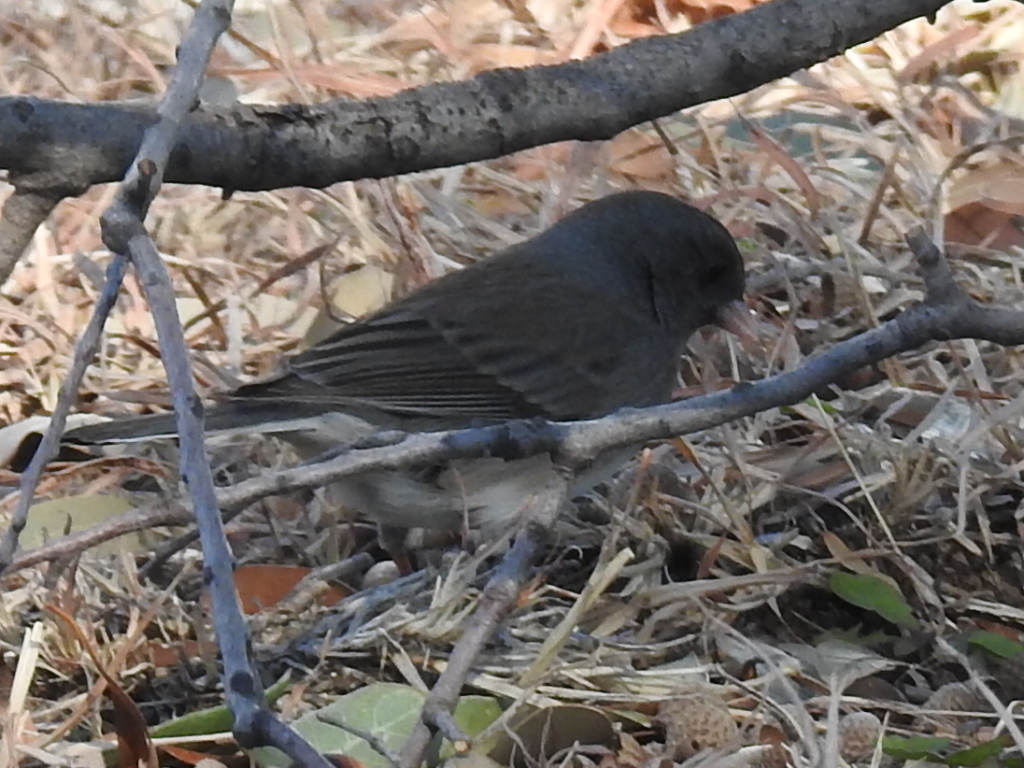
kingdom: Animalia
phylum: Chordata
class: Aves
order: Passeriformes
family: Passerellidae
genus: Junco
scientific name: Junco hyemalis
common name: Dark-eyed junco
